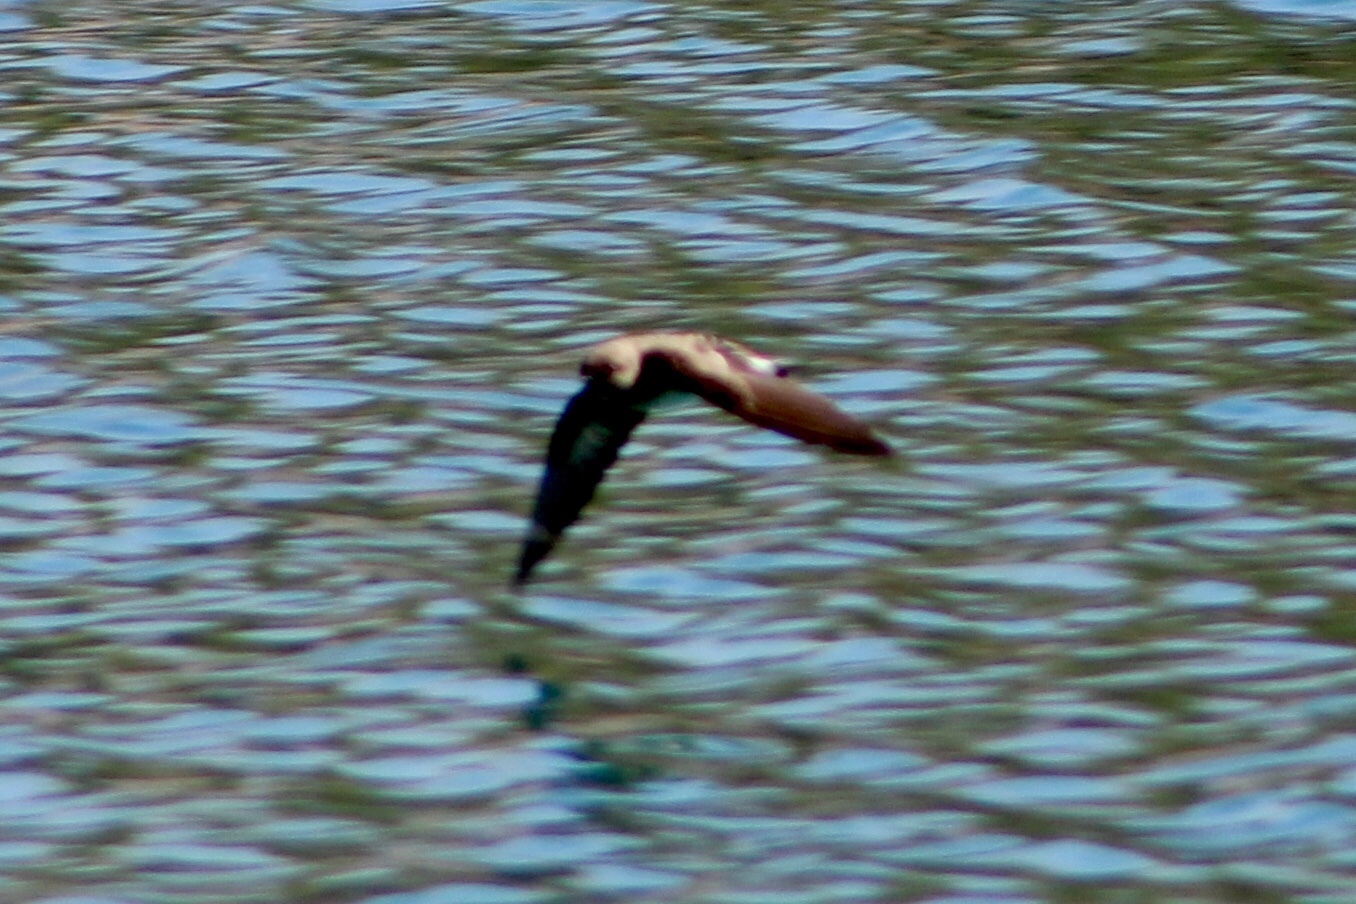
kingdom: Animalia
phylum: Chordata
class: Aves
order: Passeriformes
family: Hirundinidae
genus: Stelgidopteryx
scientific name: Stelgidopteryx serripennis
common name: Northern rough-winged swallow
